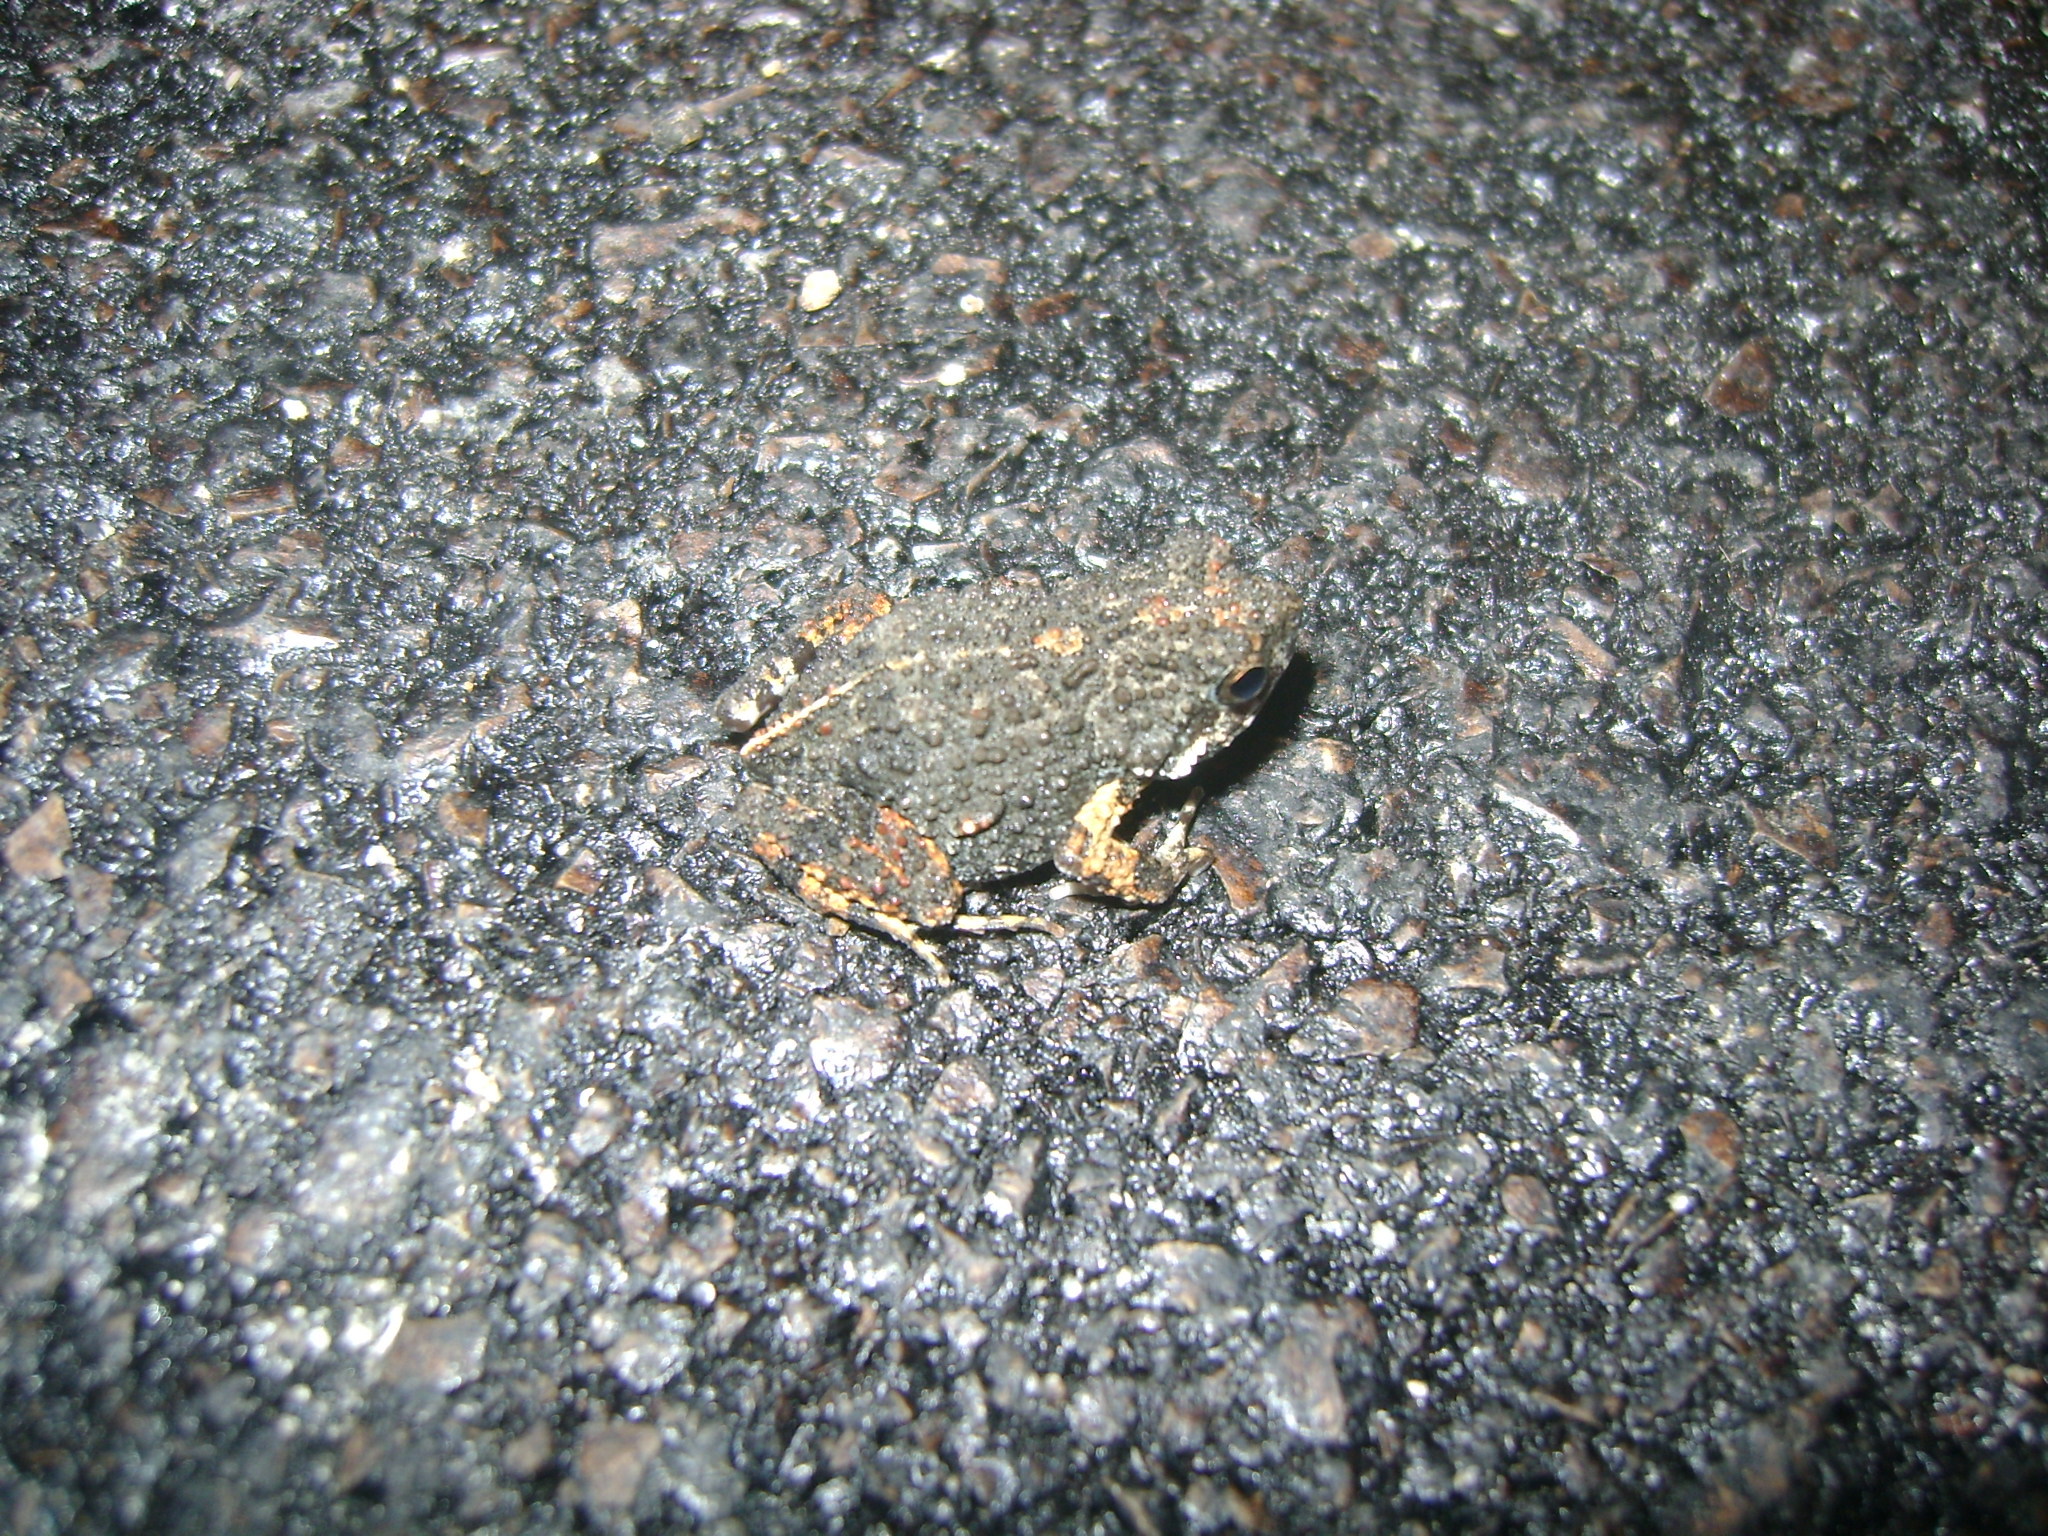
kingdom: Animalia
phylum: Chordata
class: Amphibia
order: Anura
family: Leptodactylidae
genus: Engystomops
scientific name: Engystomops pustulosus
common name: Tungara frog
